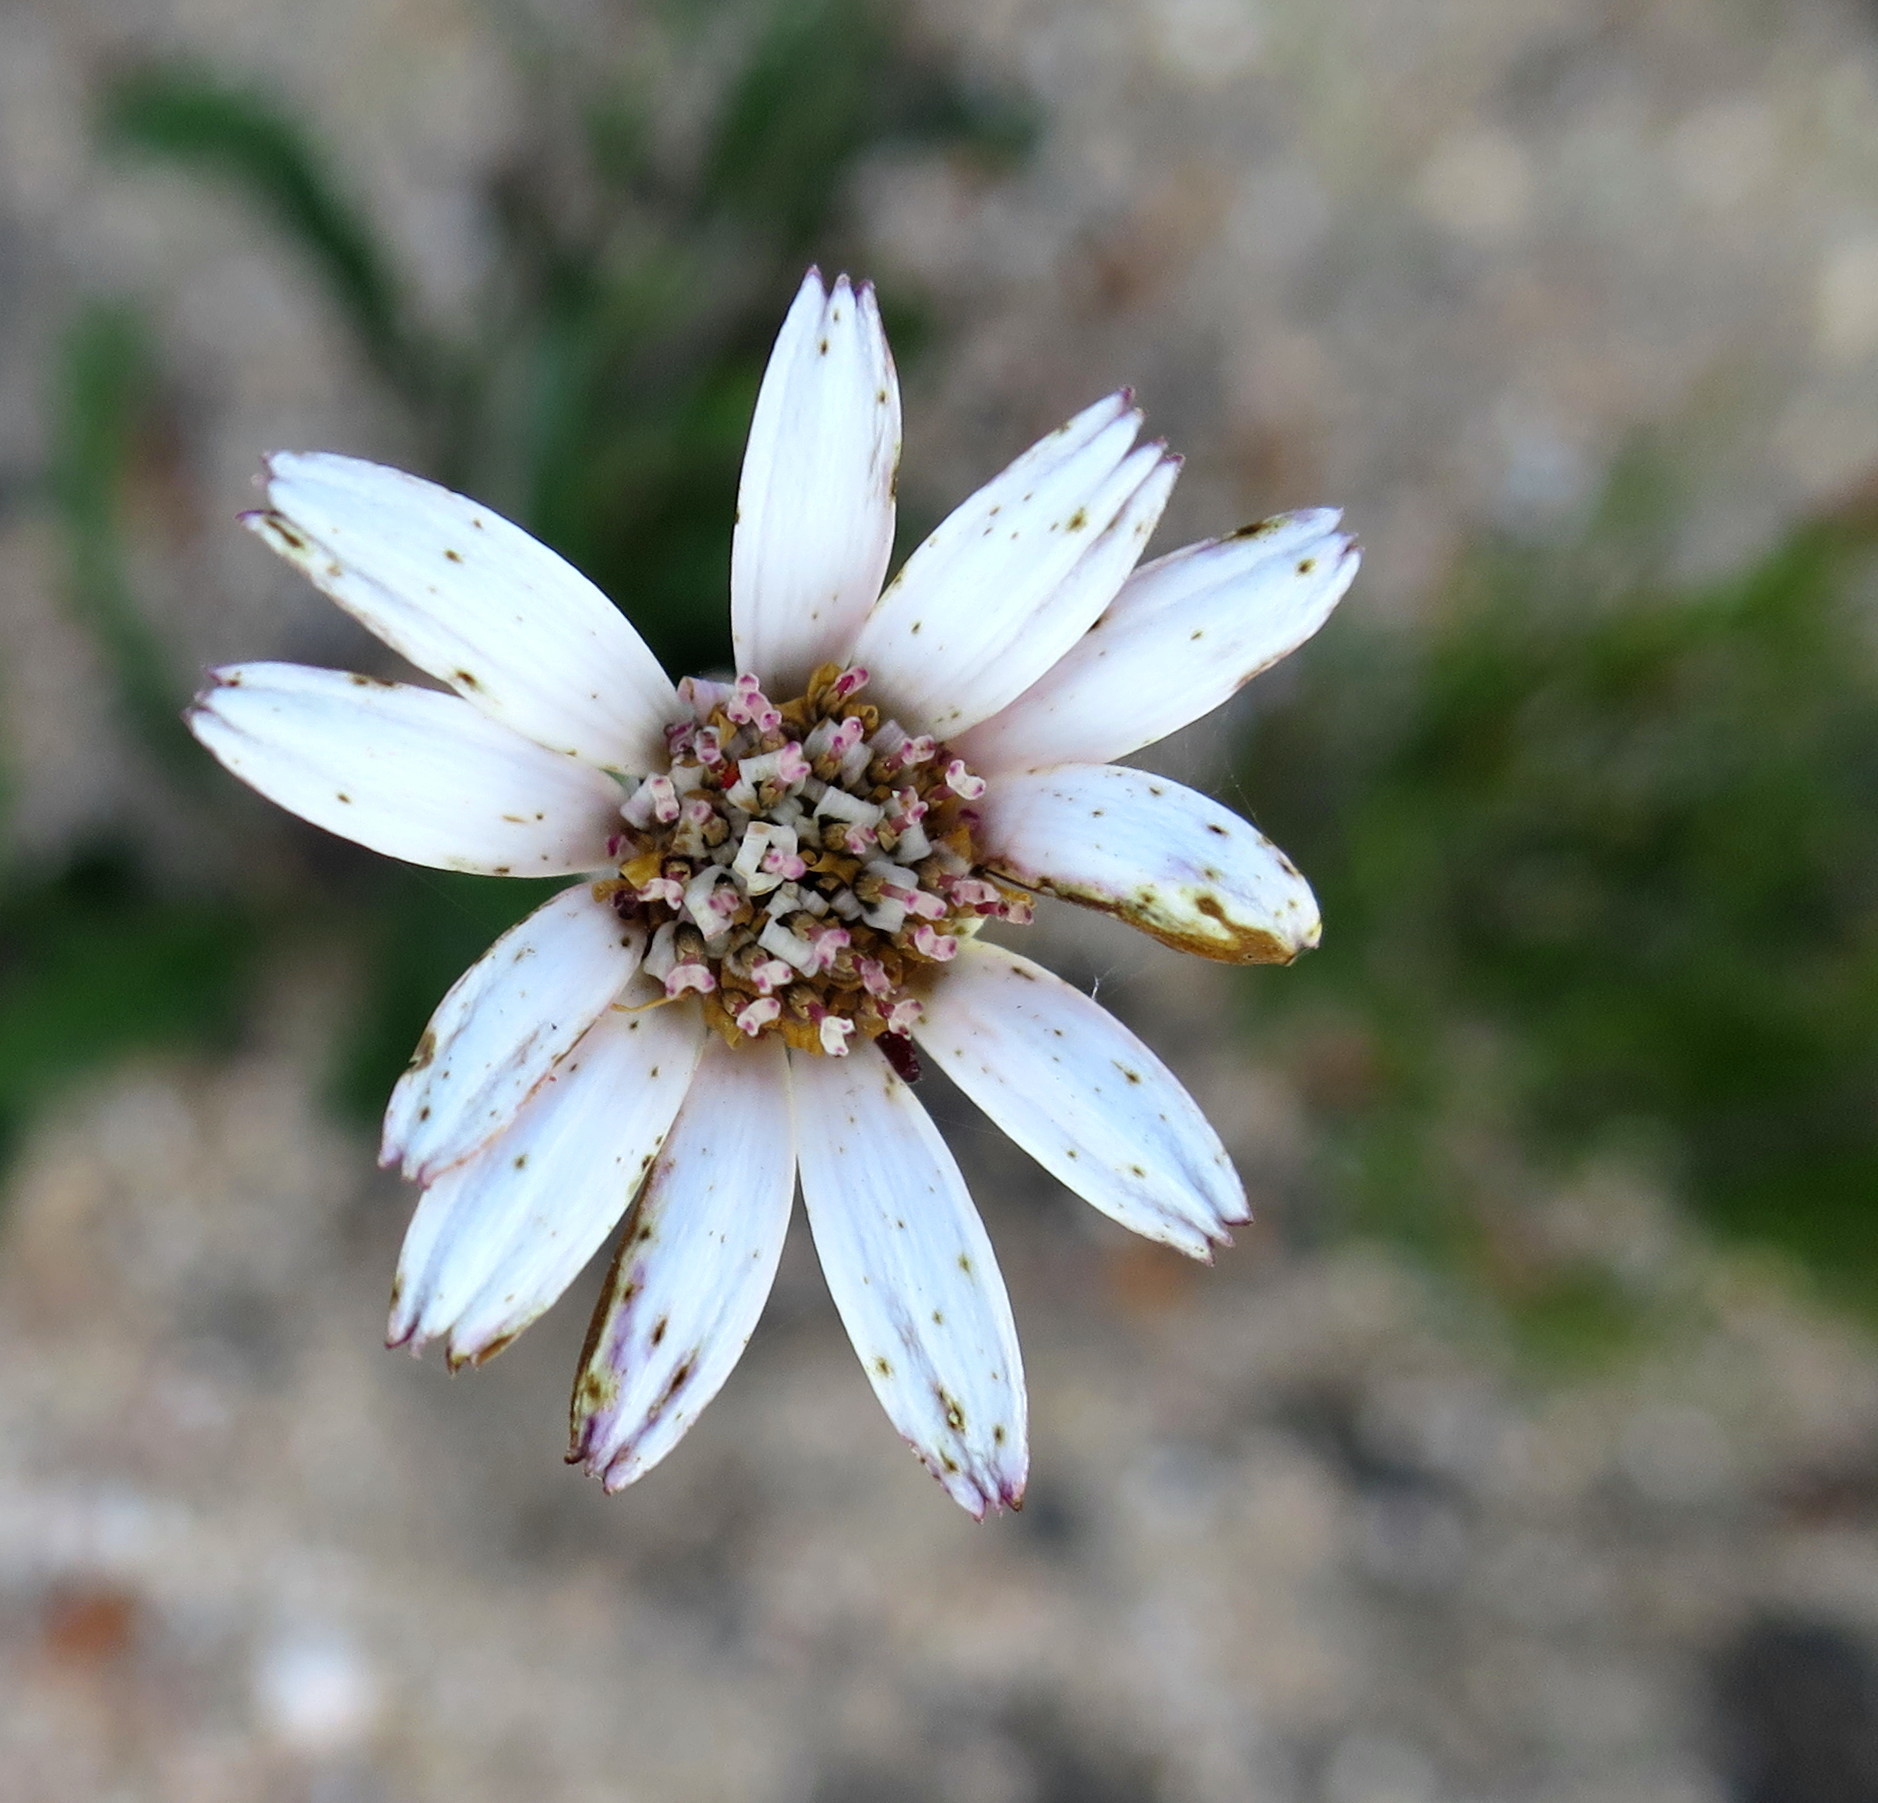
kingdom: Plantae
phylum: Tracheophyta
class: Magnoliopsida
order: Asterales
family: Asteraceae
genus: Gerbera
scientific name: Gerbera serrata
